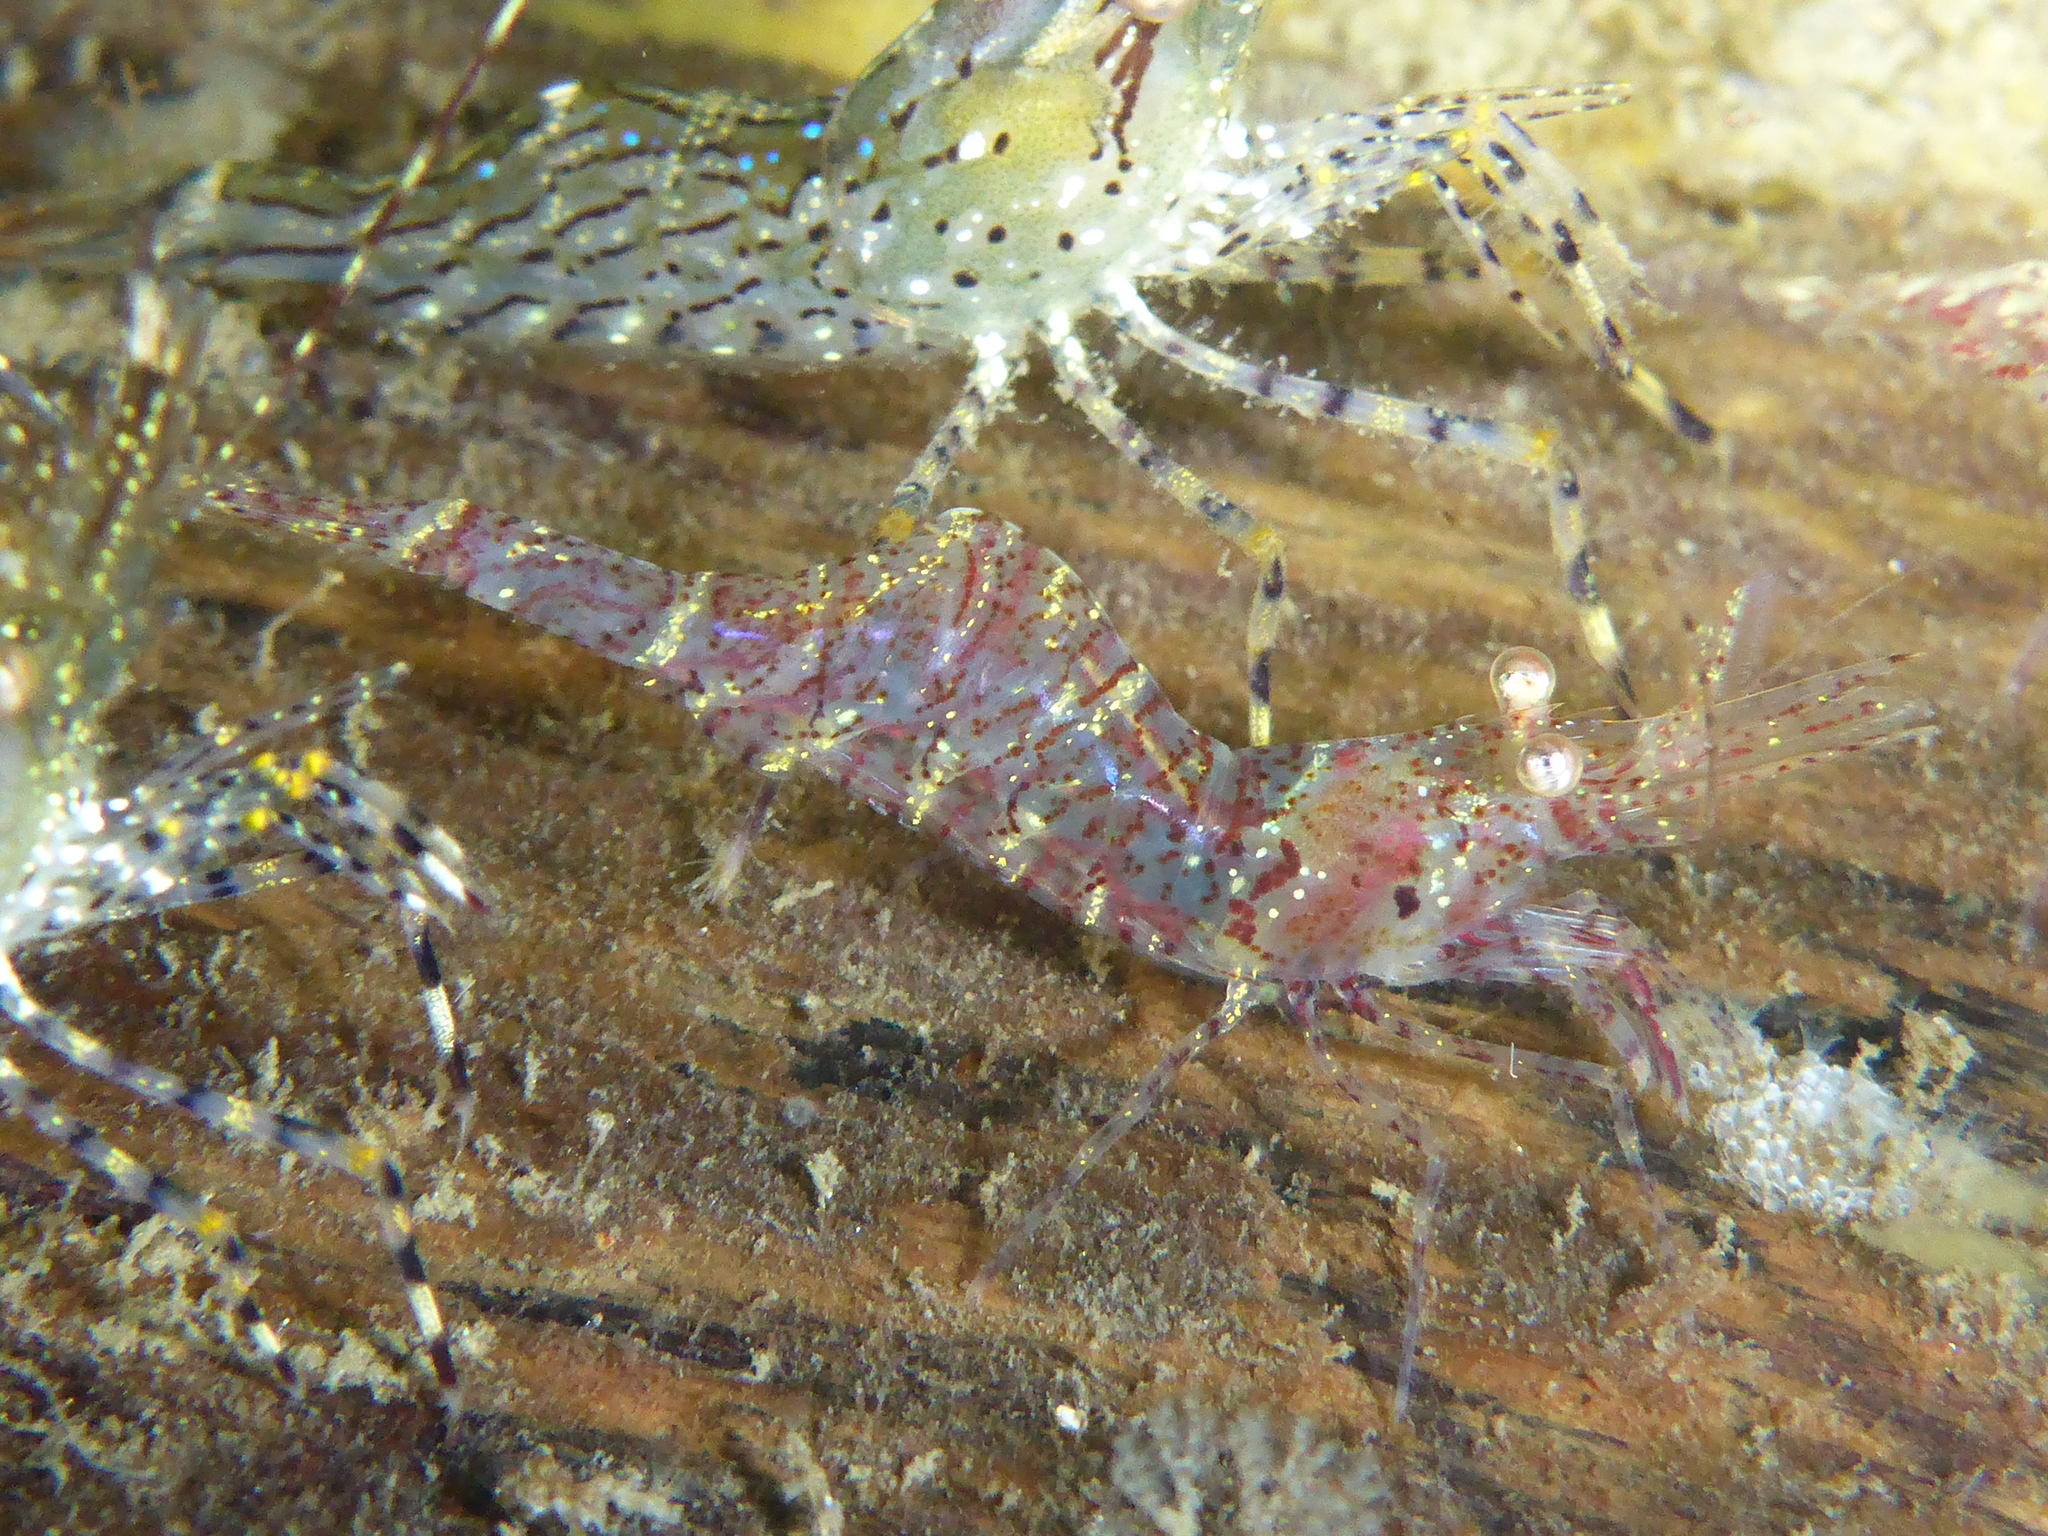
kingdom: Animalia
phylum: Arthropoda
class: Malacostraca
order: Decapoda
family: Thoridae
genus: Heptacarpus
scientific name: Heptacarpus tridens
